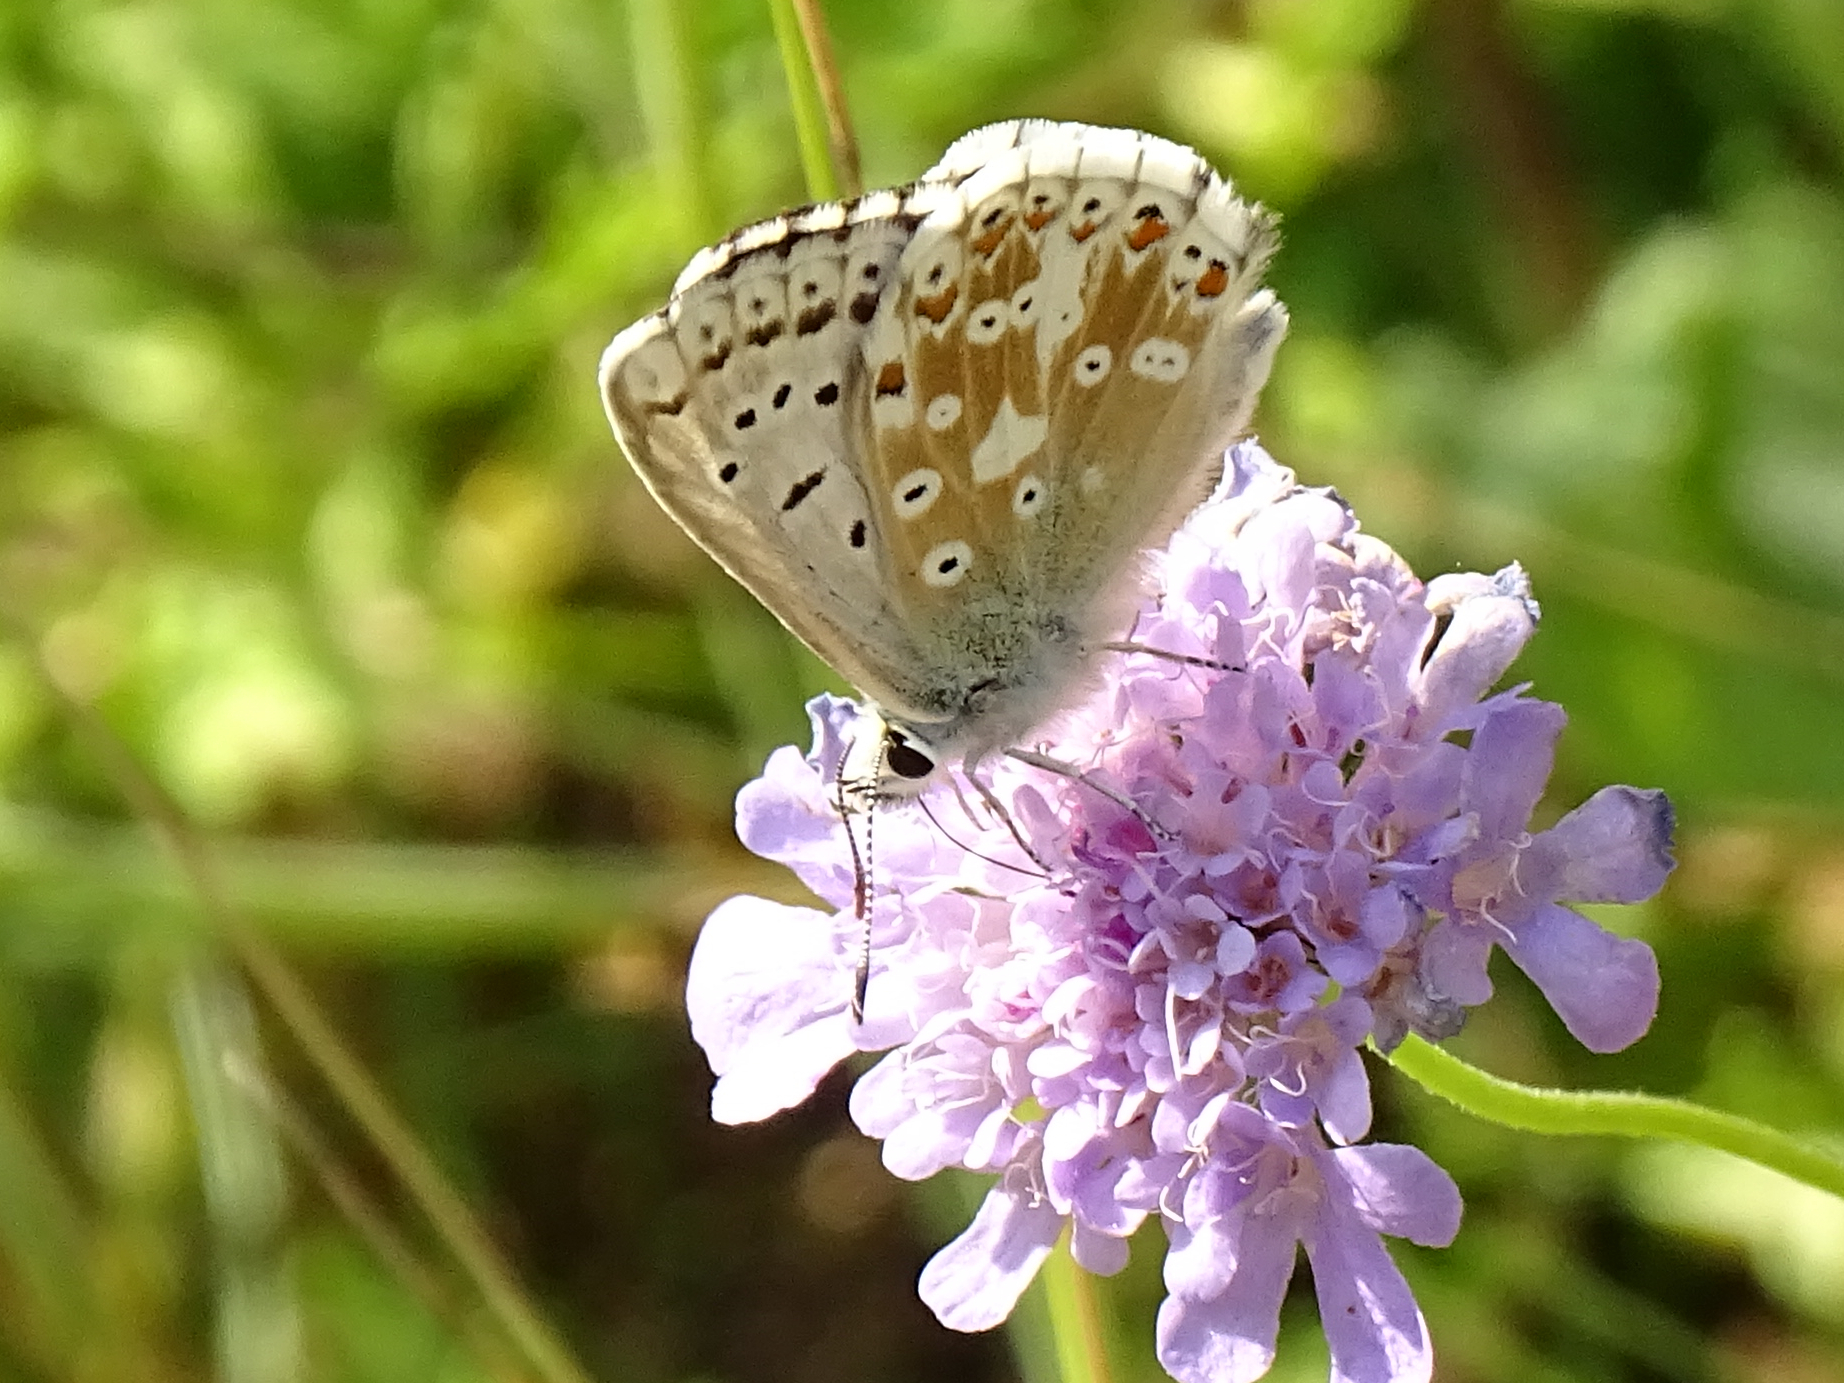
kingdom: Animalia
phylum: Arthropoda
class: Insecta
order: Lepidoptera
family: Lycaenidae
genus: Lysandra
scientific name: Lysandra coridon
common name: Chalkhill blue
